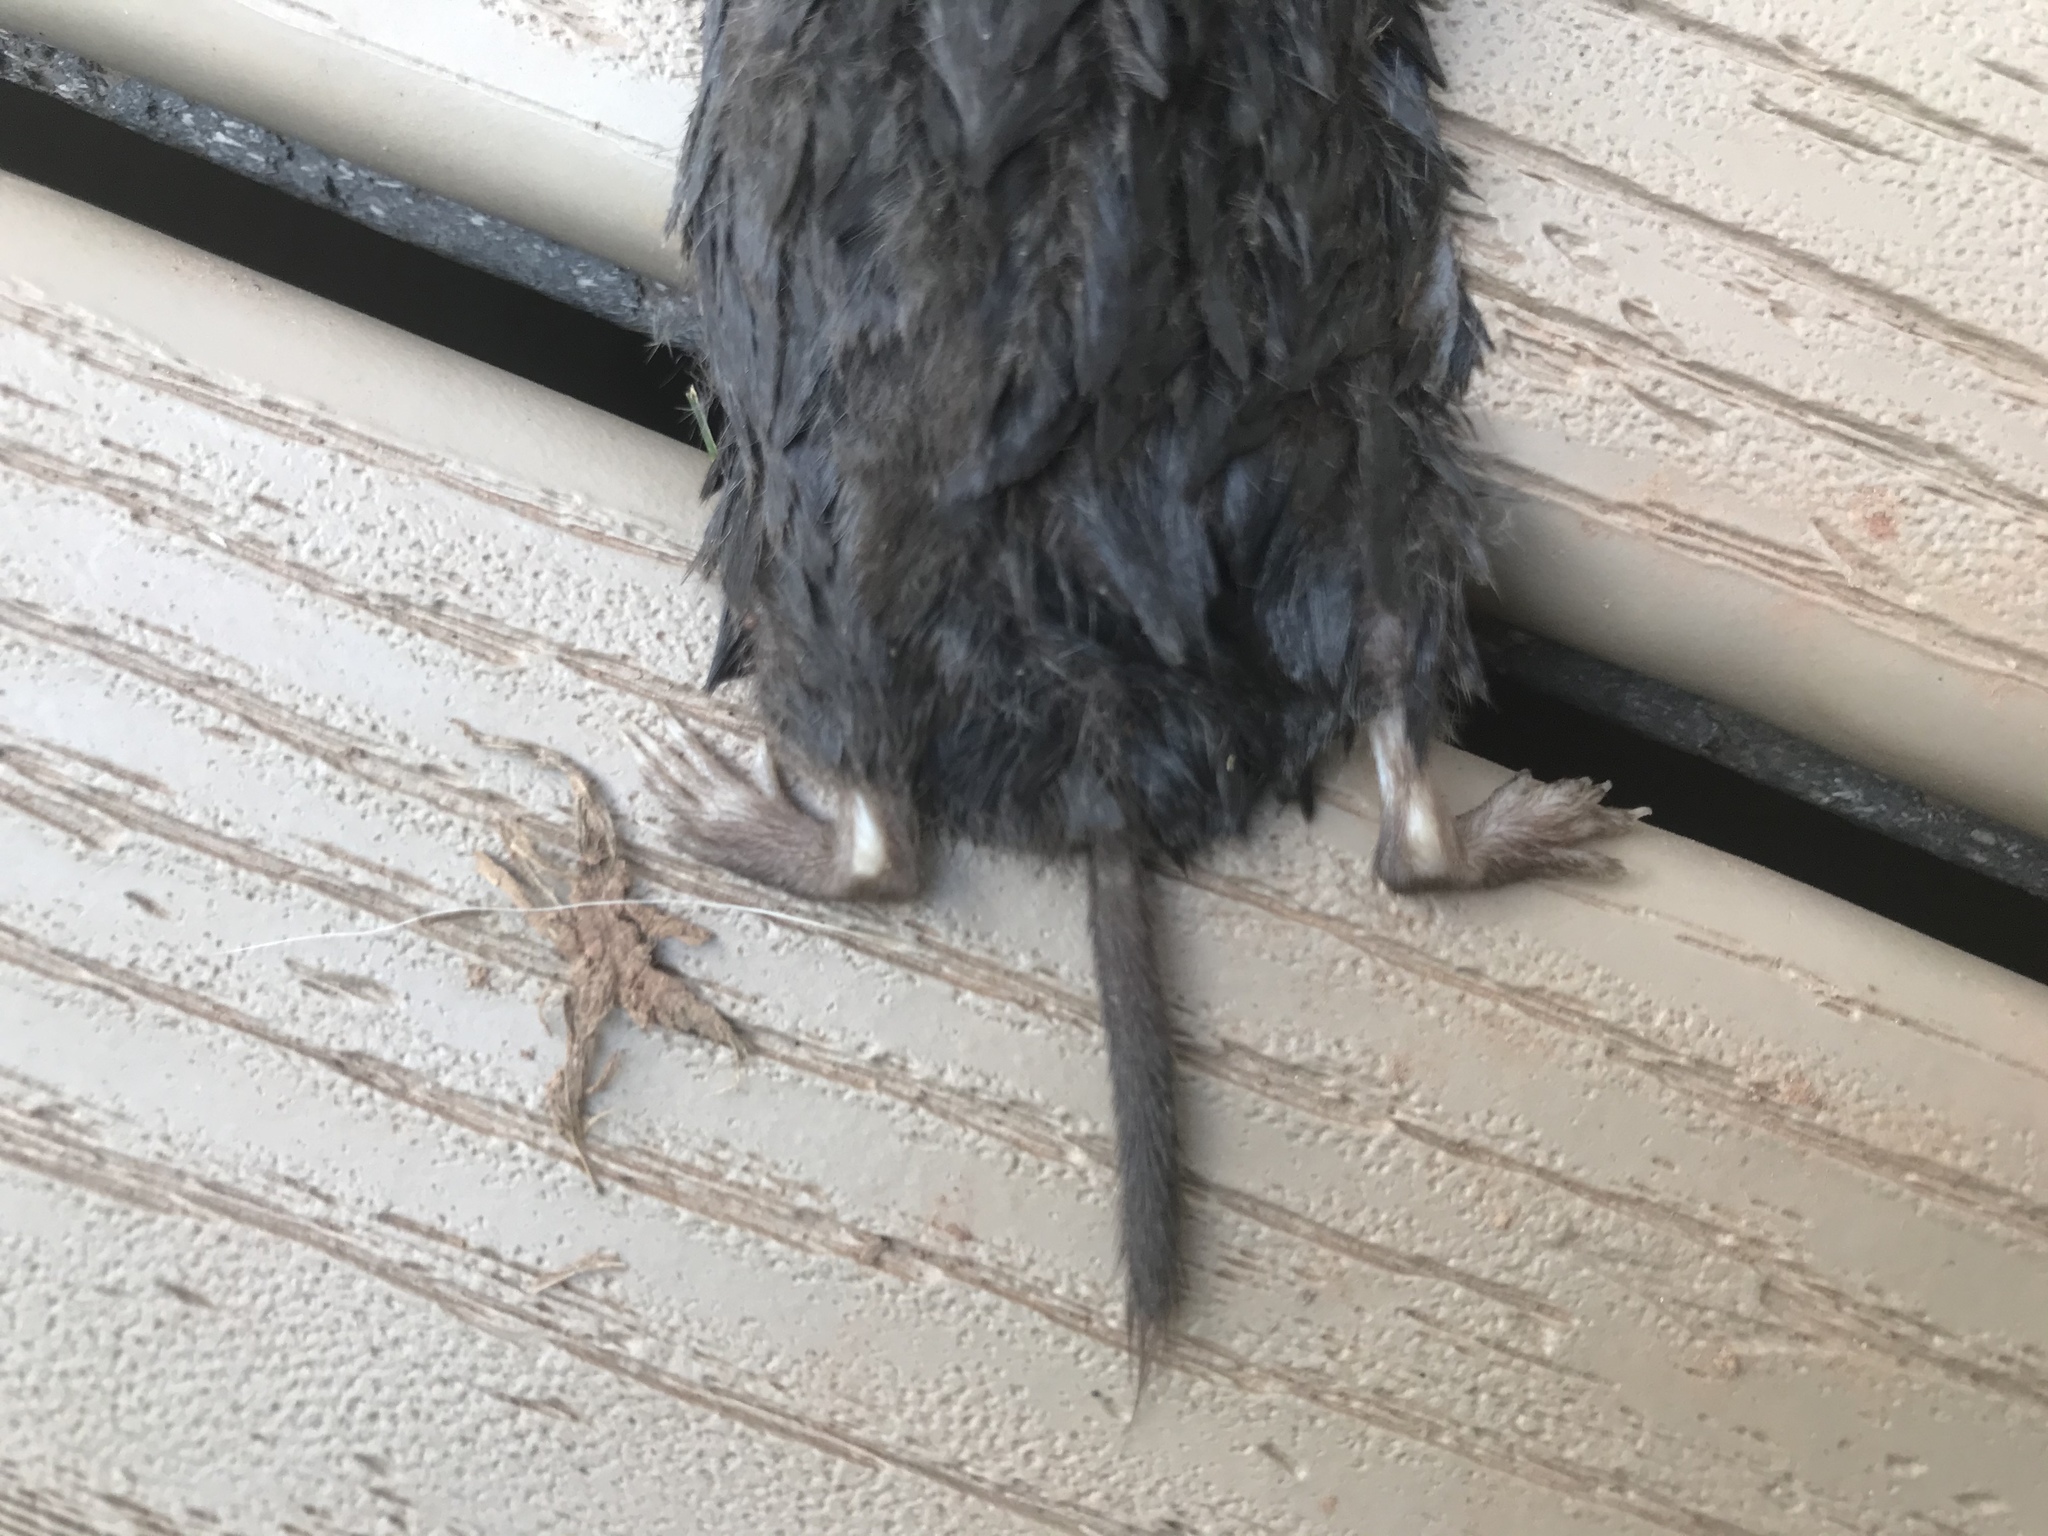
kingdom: Animalia
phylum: Chordata
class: Mammalia
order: Soricomorpha
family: Soricidae
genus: Blarina
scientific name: Blarina brevicauda
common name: Northern short-tailed shrew
